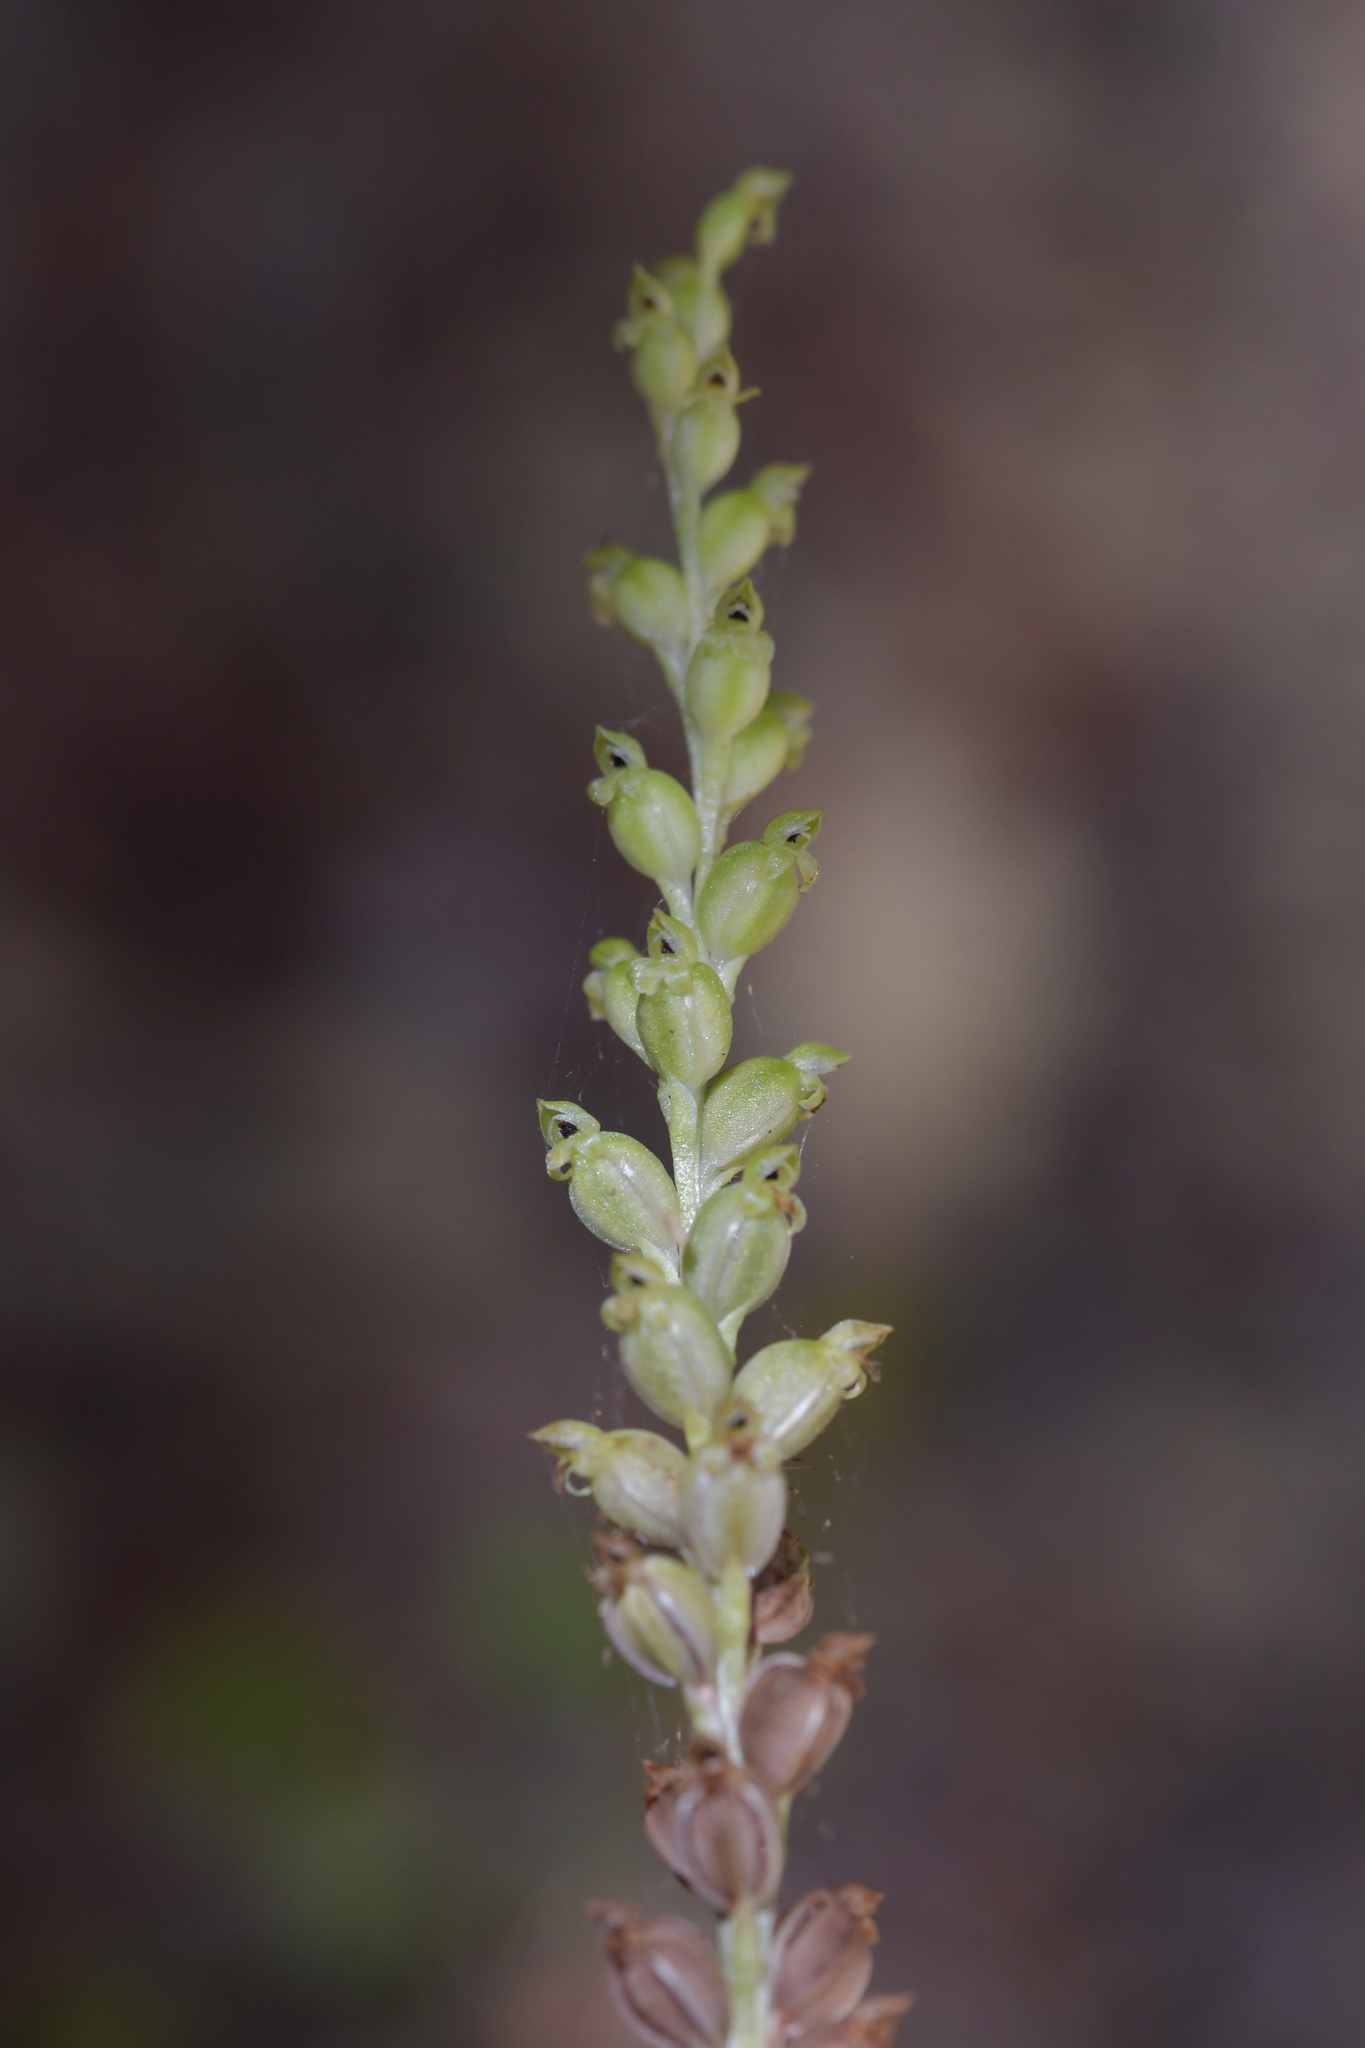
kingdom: Plantae
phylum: Tracheophyta
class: Liliopsida
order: Asparagales
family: Orchidaceae
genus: Microtis
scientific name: Microtis unifolia
